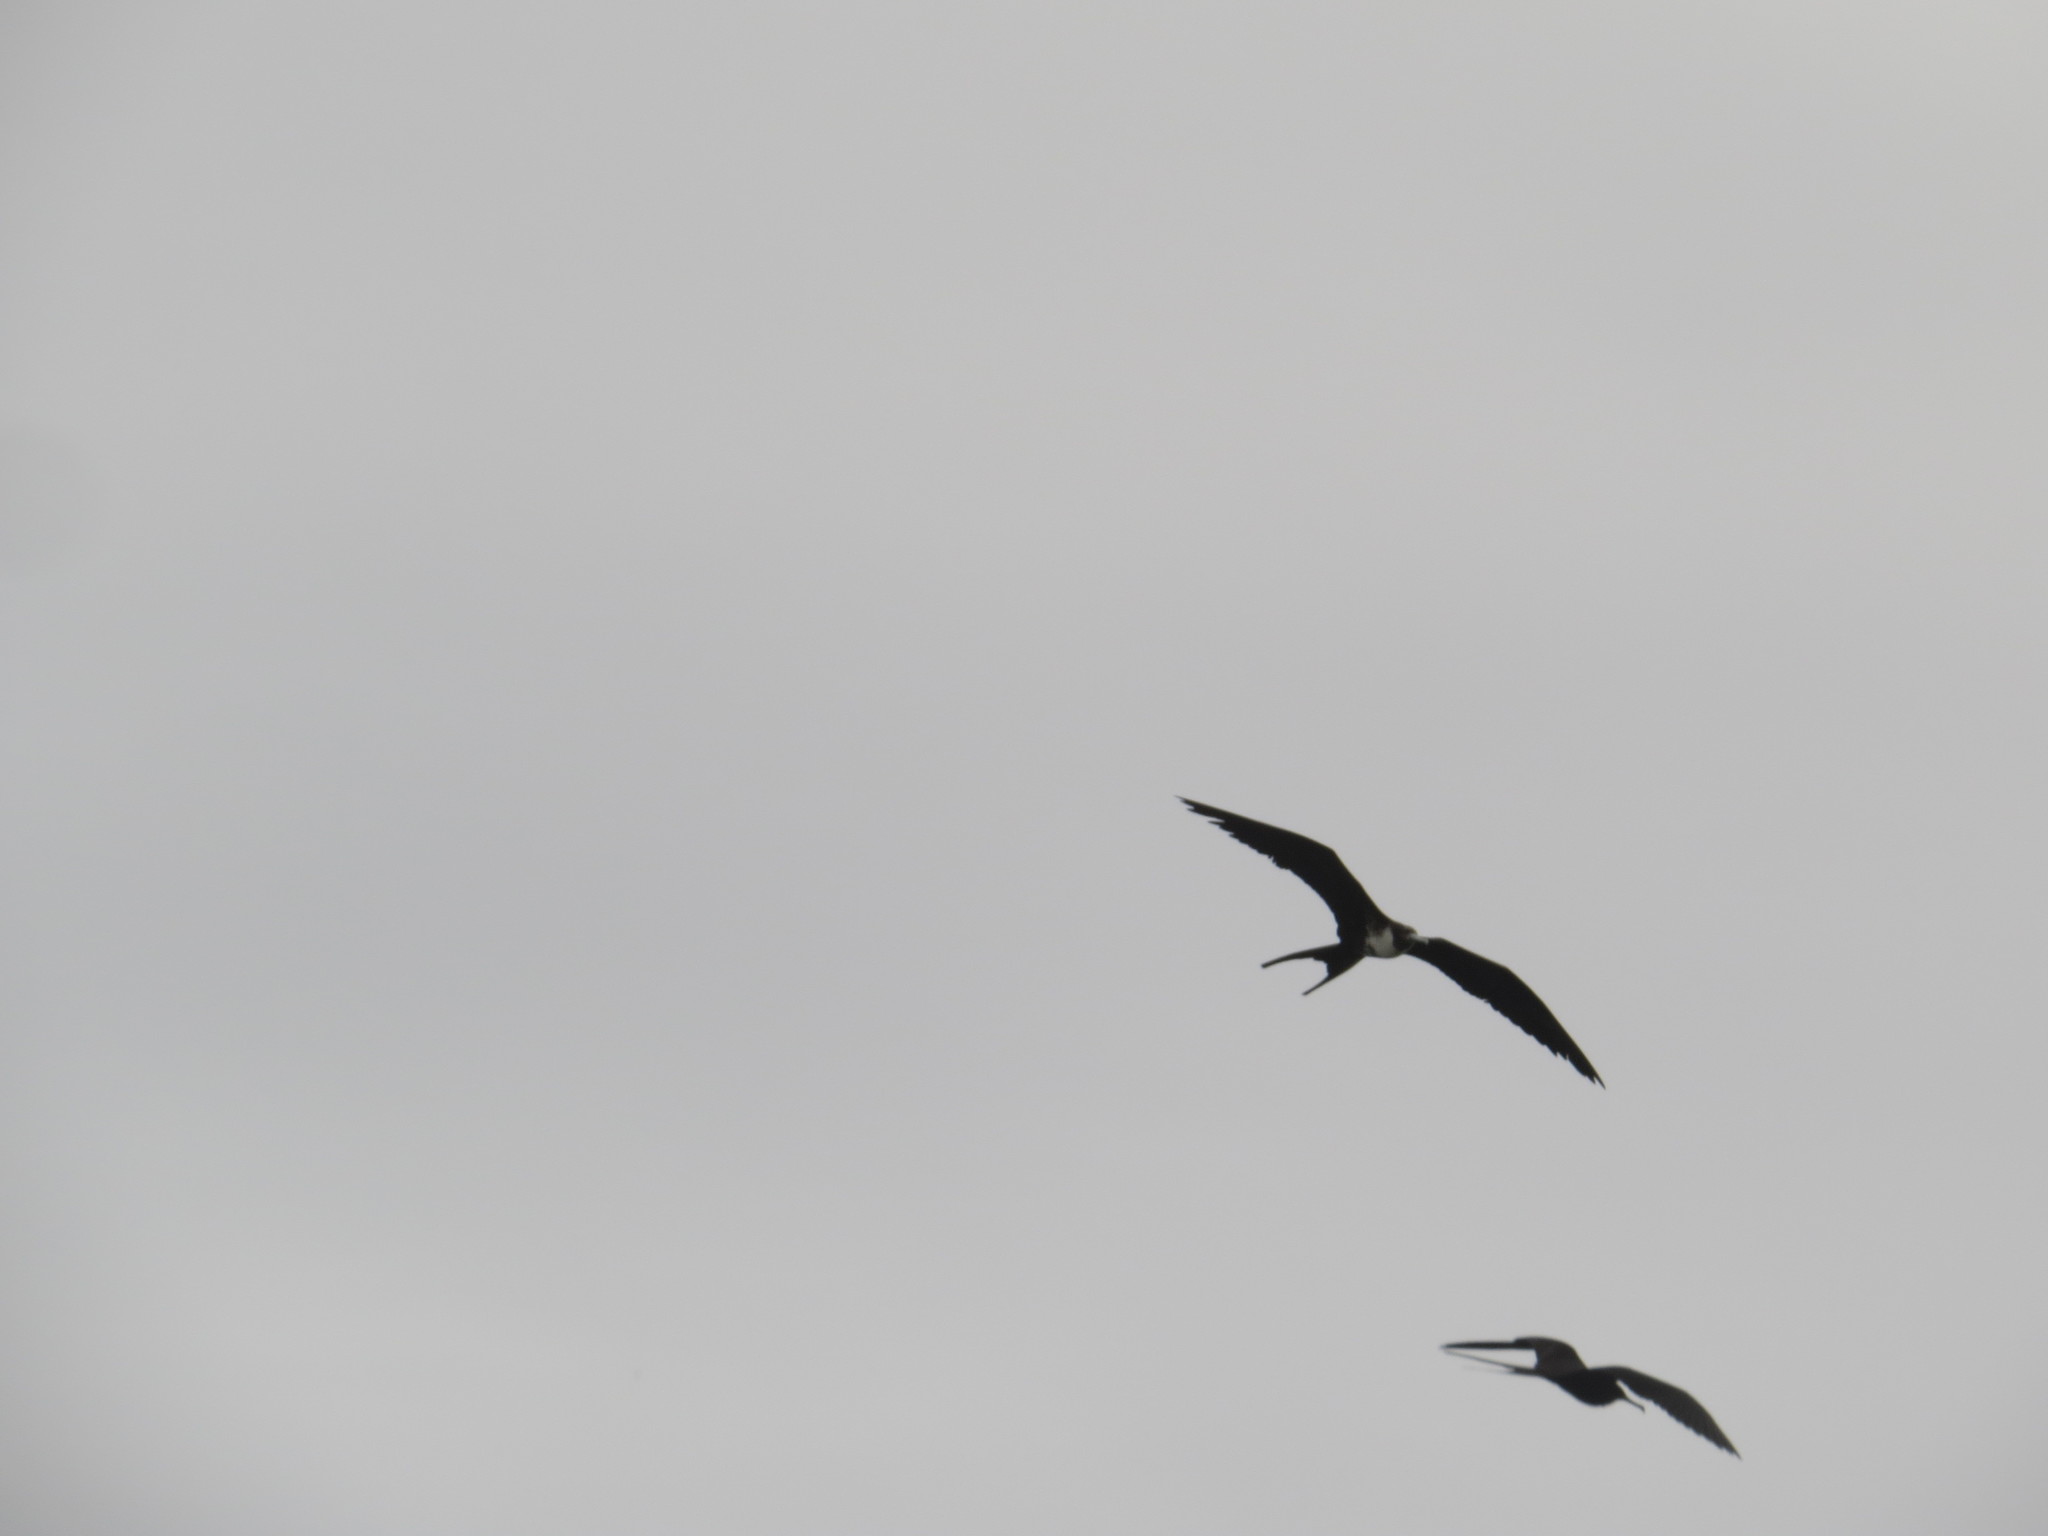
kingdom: Animalia
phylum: Chordata
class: Aves
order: Suliformes
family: Fregatidae
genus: Fregata
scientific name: Fregata magnificens
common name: Magnificent frigatebird
